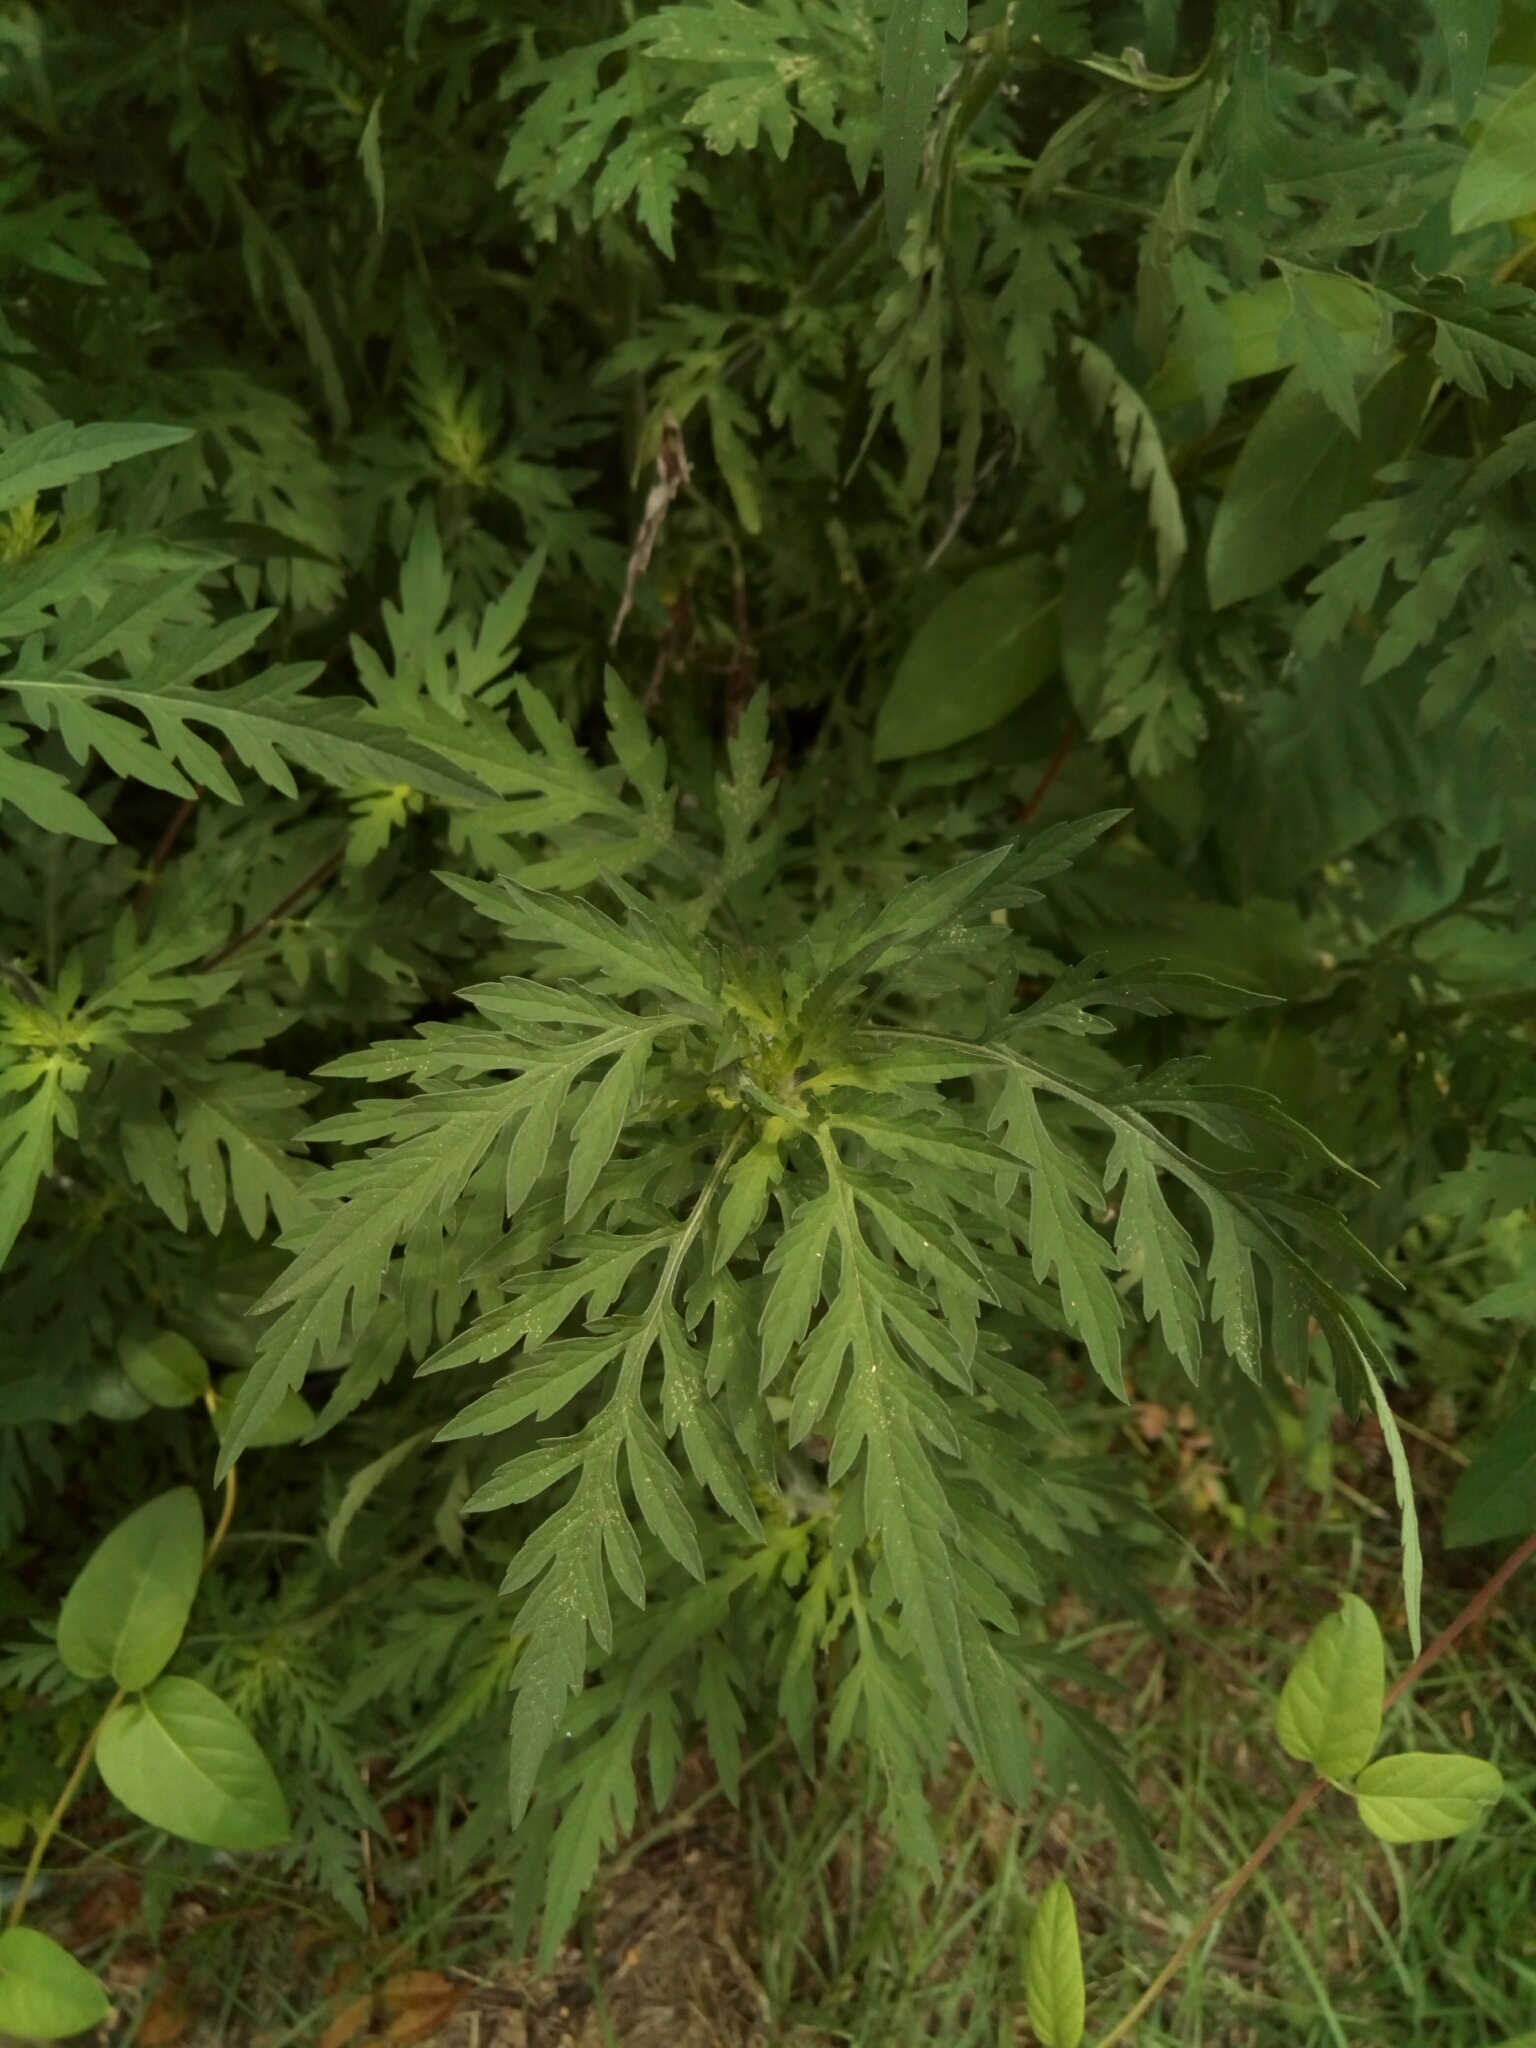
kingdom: Plantae
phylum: Tracheophyta
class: Magnoliopsida
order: Asterales
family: Asteraceae
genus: Ambrosia
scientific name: Ambrosia artemisiifolia
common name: Annual ragweed
